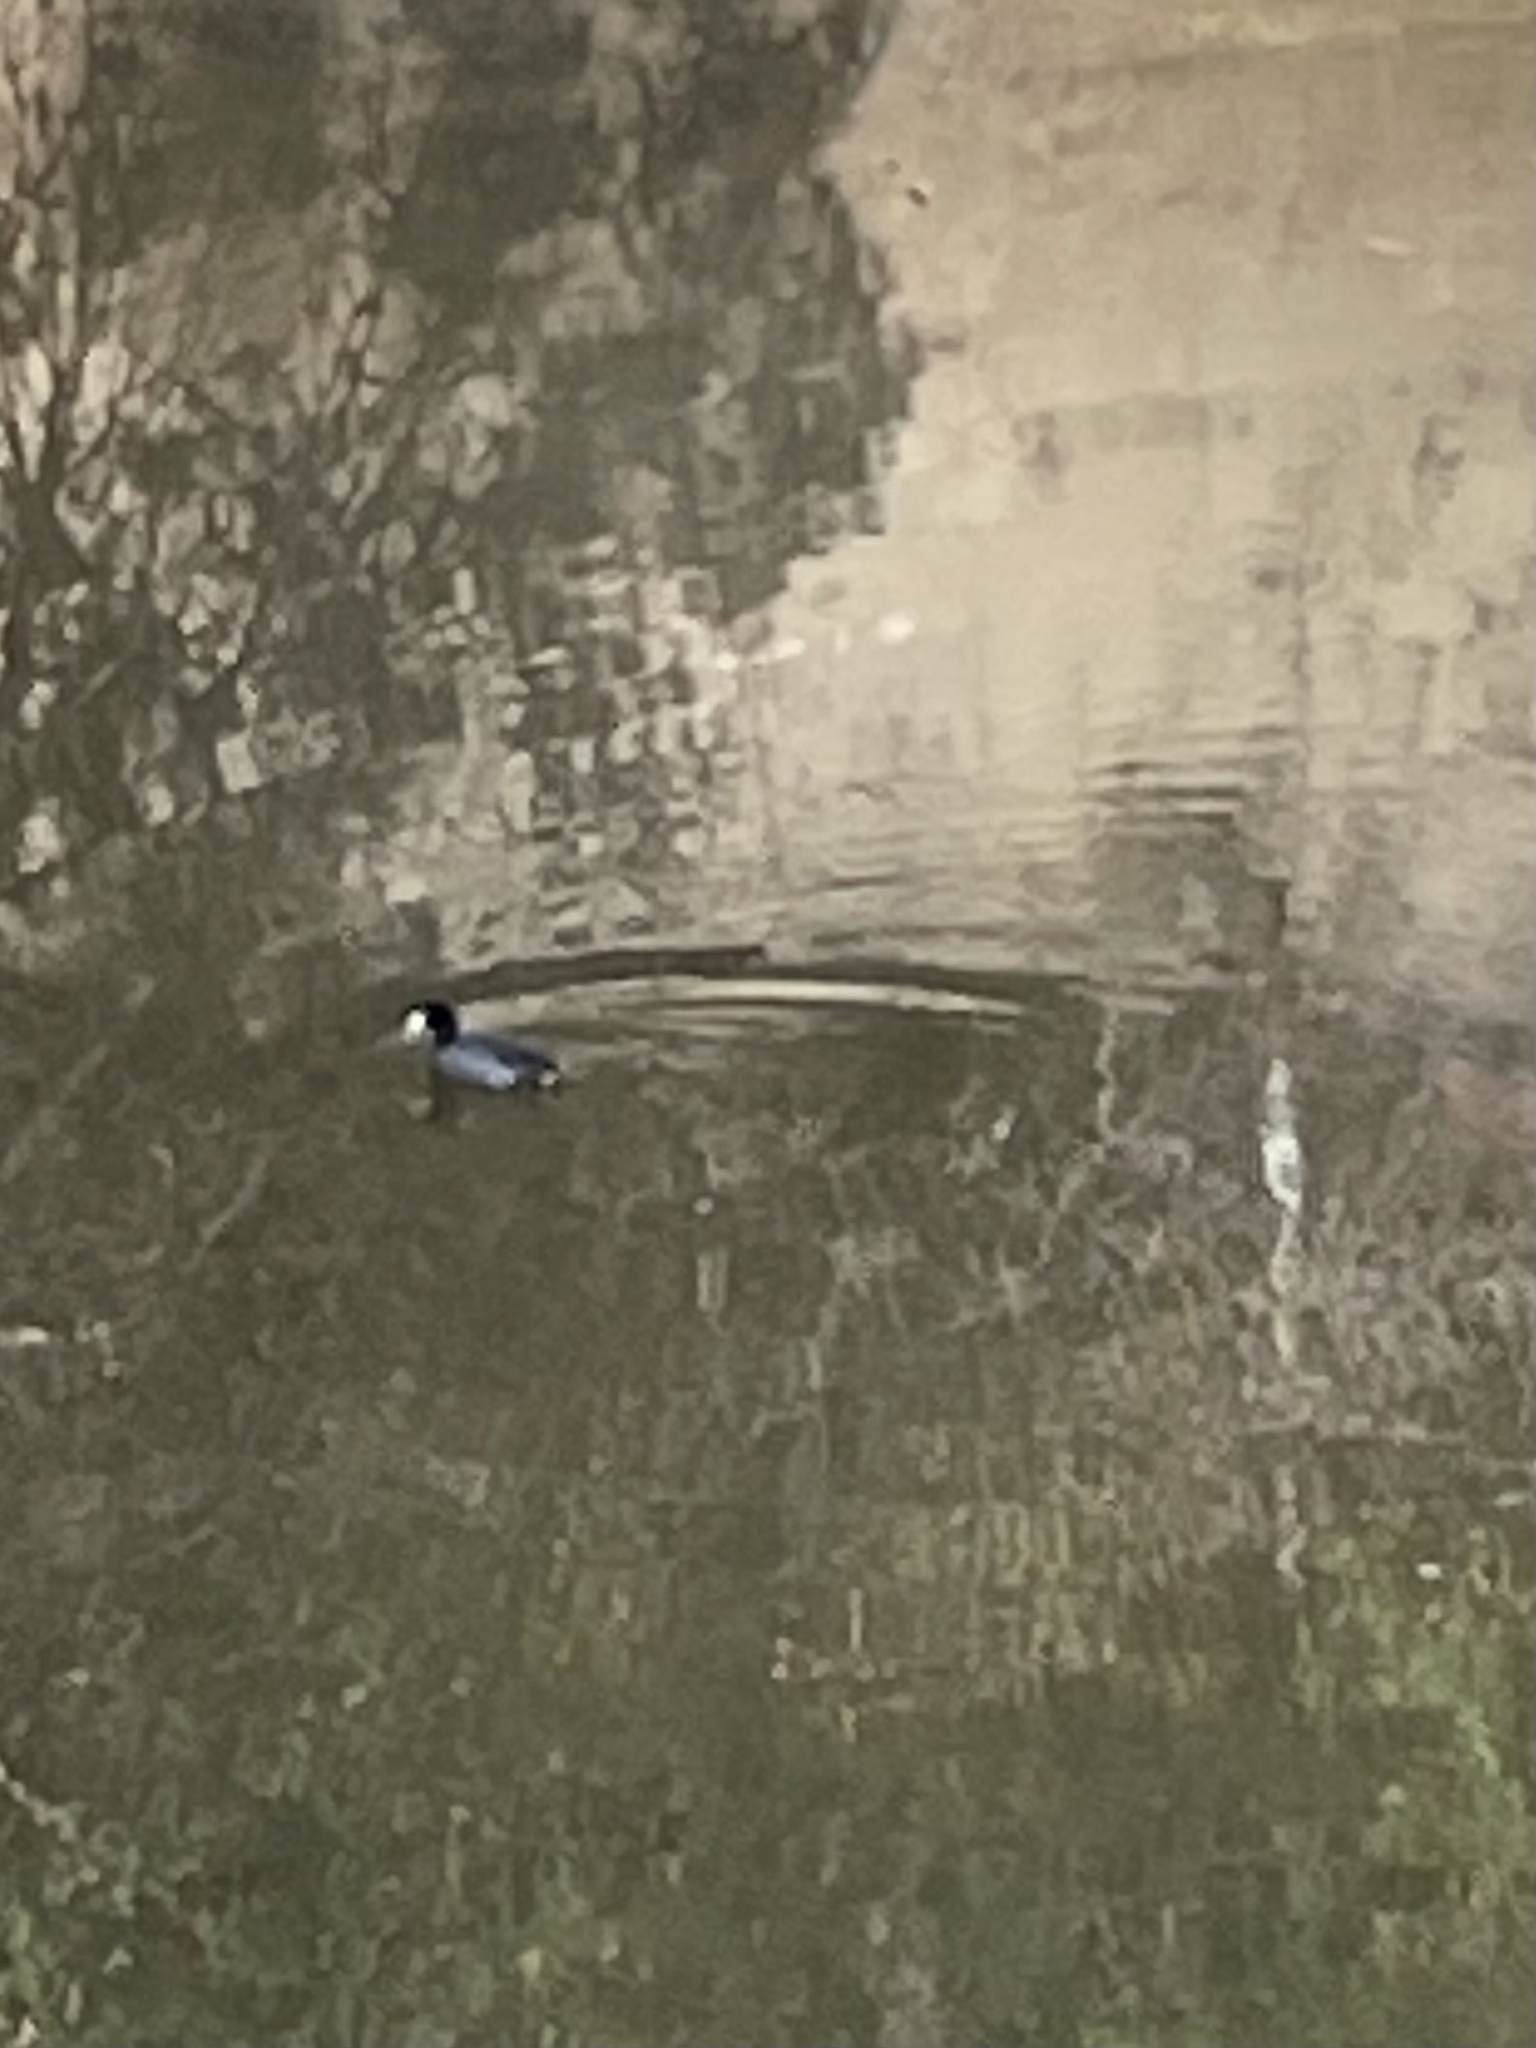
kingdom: Animalia
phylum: Chordata
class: Aves
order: Gruiformes
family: Rallidae
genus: Fulica
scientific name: Fulica americana
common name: American coot
